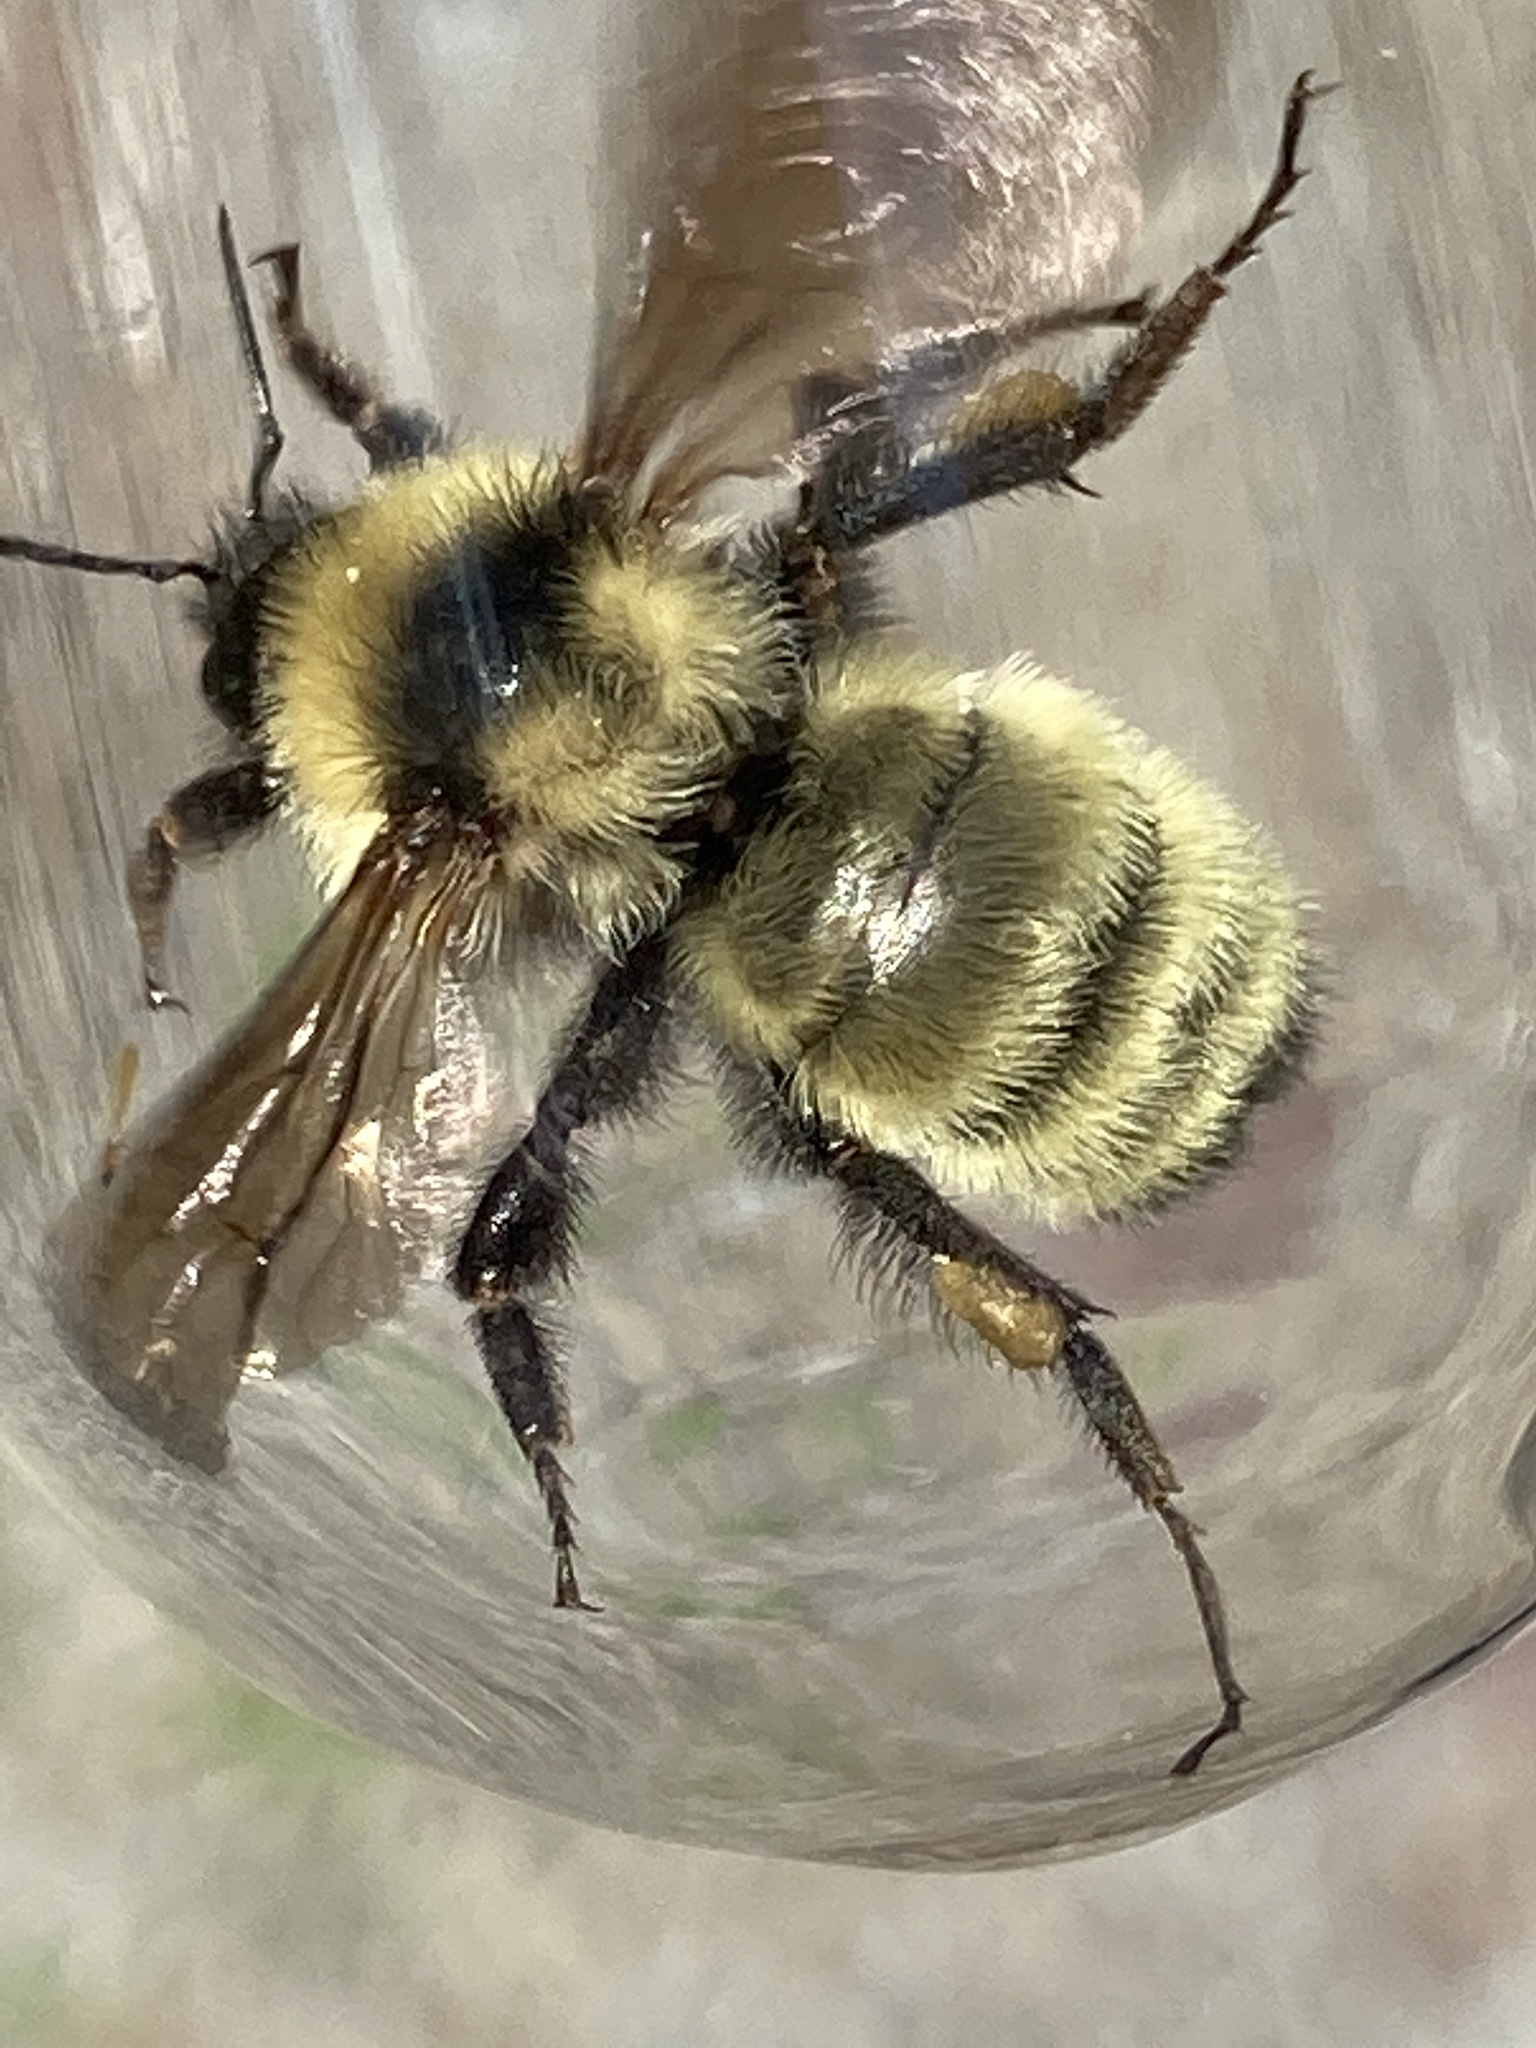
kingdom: Animalia
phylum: Arthropoda
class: Insecta
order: Hymenoptera
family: Apidae
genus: Bombus
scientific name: Bombus fervidus
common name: Yellow bumble bee
